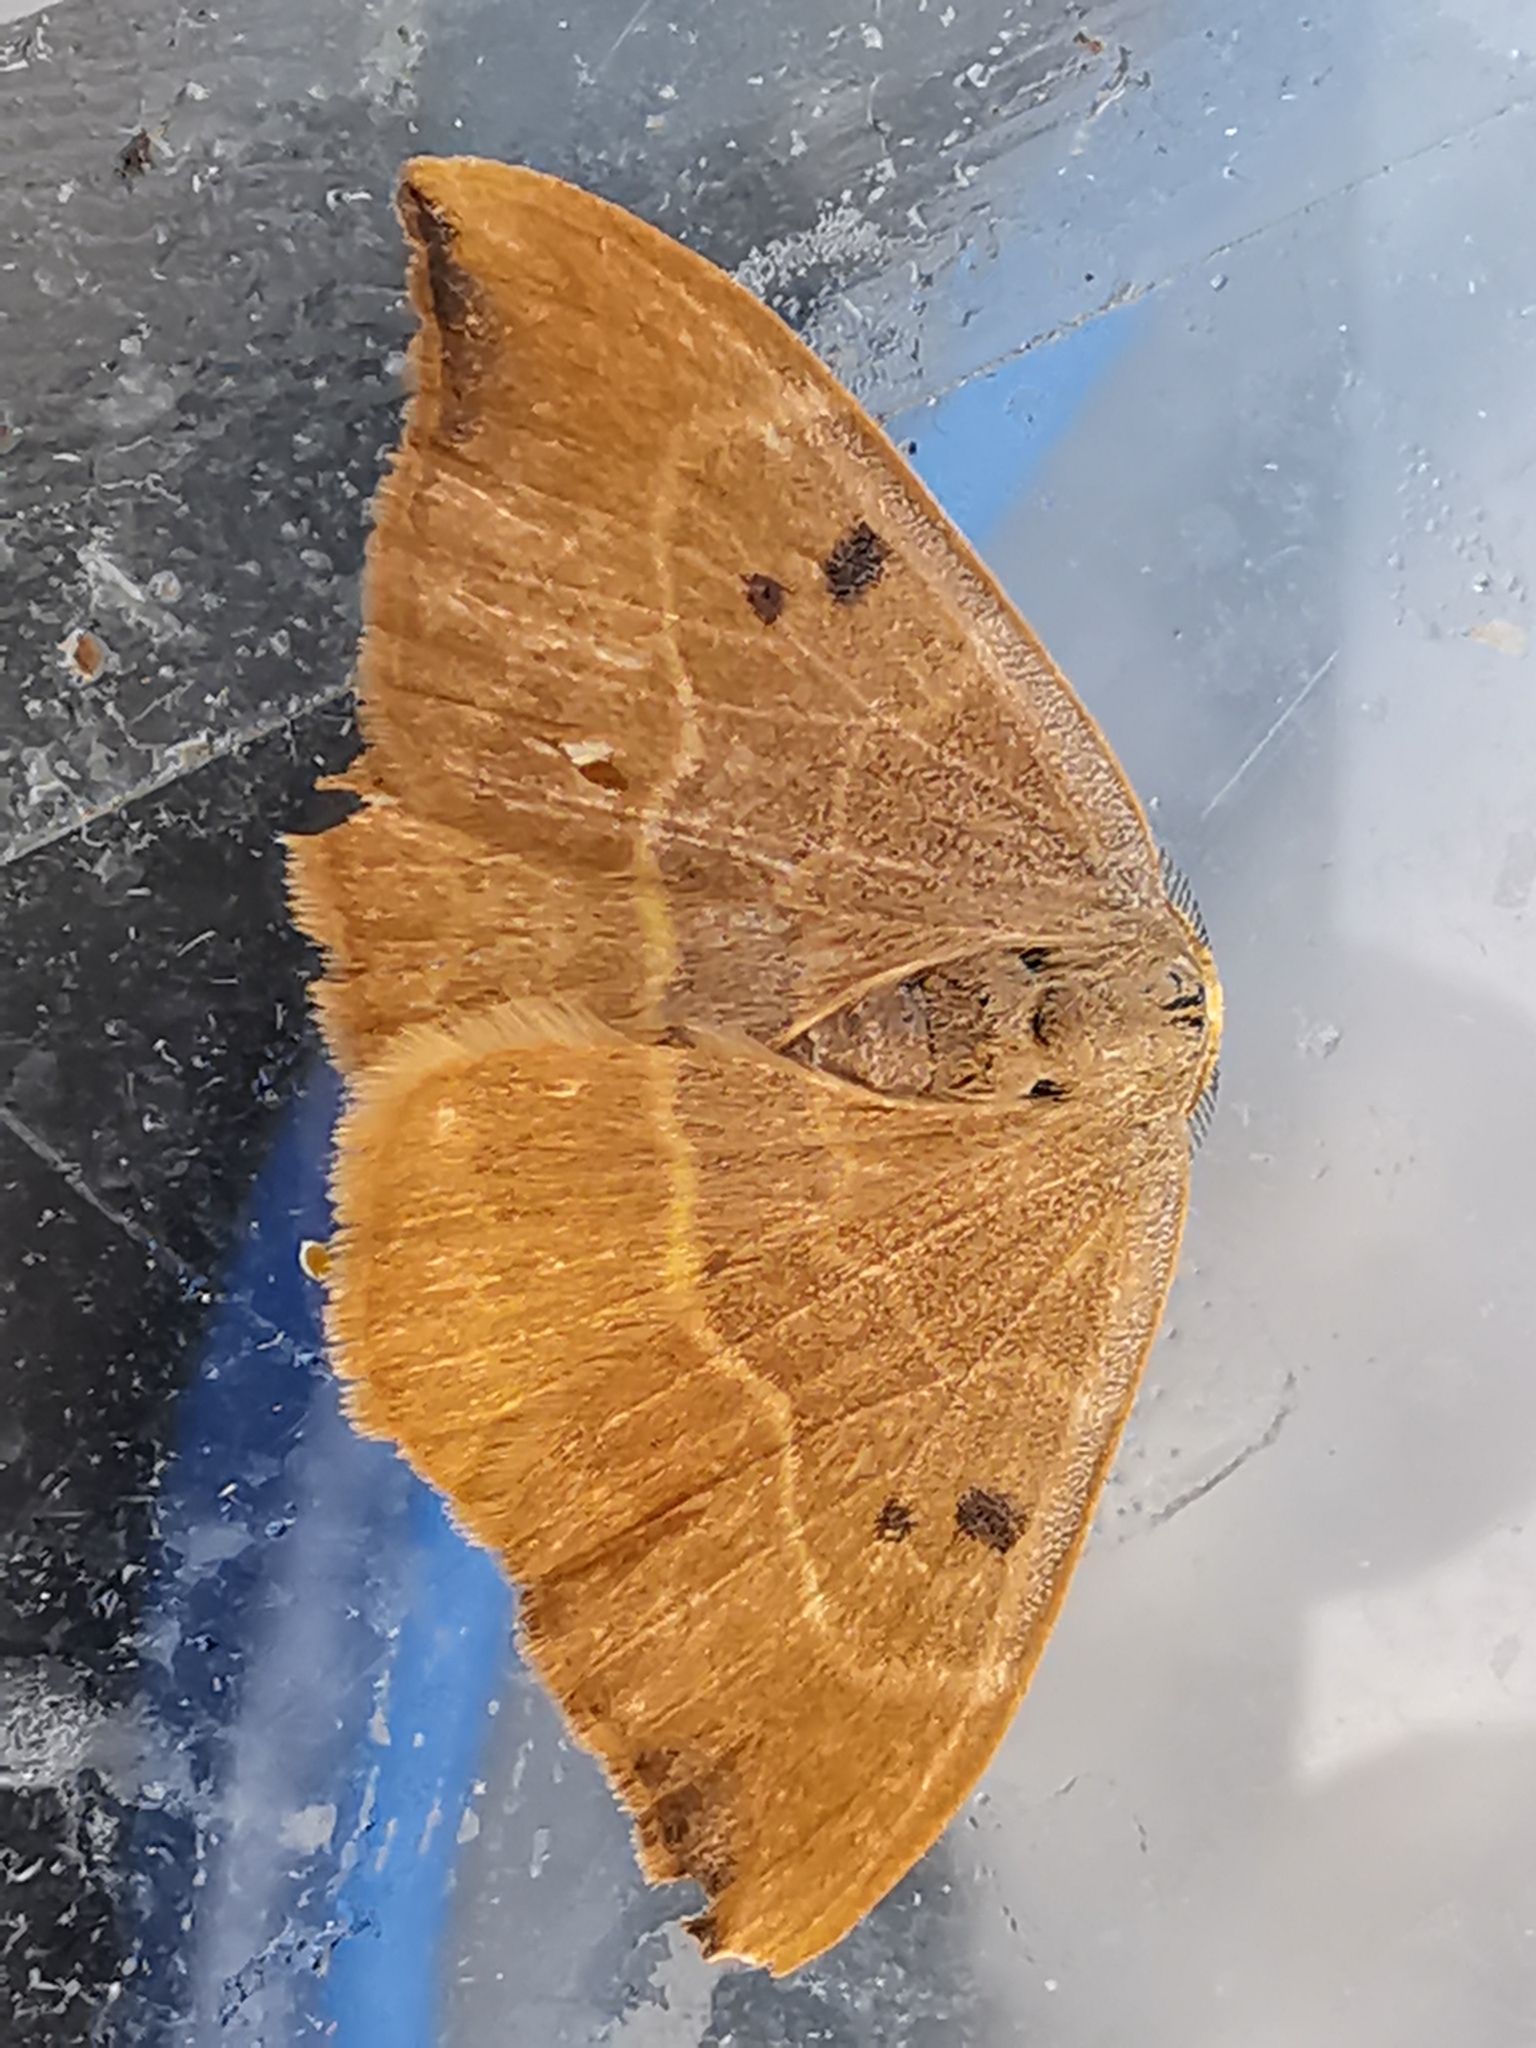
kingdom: Animalia
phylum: Arthropoda
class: Insecta
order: Lepidoptera
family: Drepanidae
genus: Watsonalla
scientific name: Watsonalla binaria
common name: Oak hook-tip
